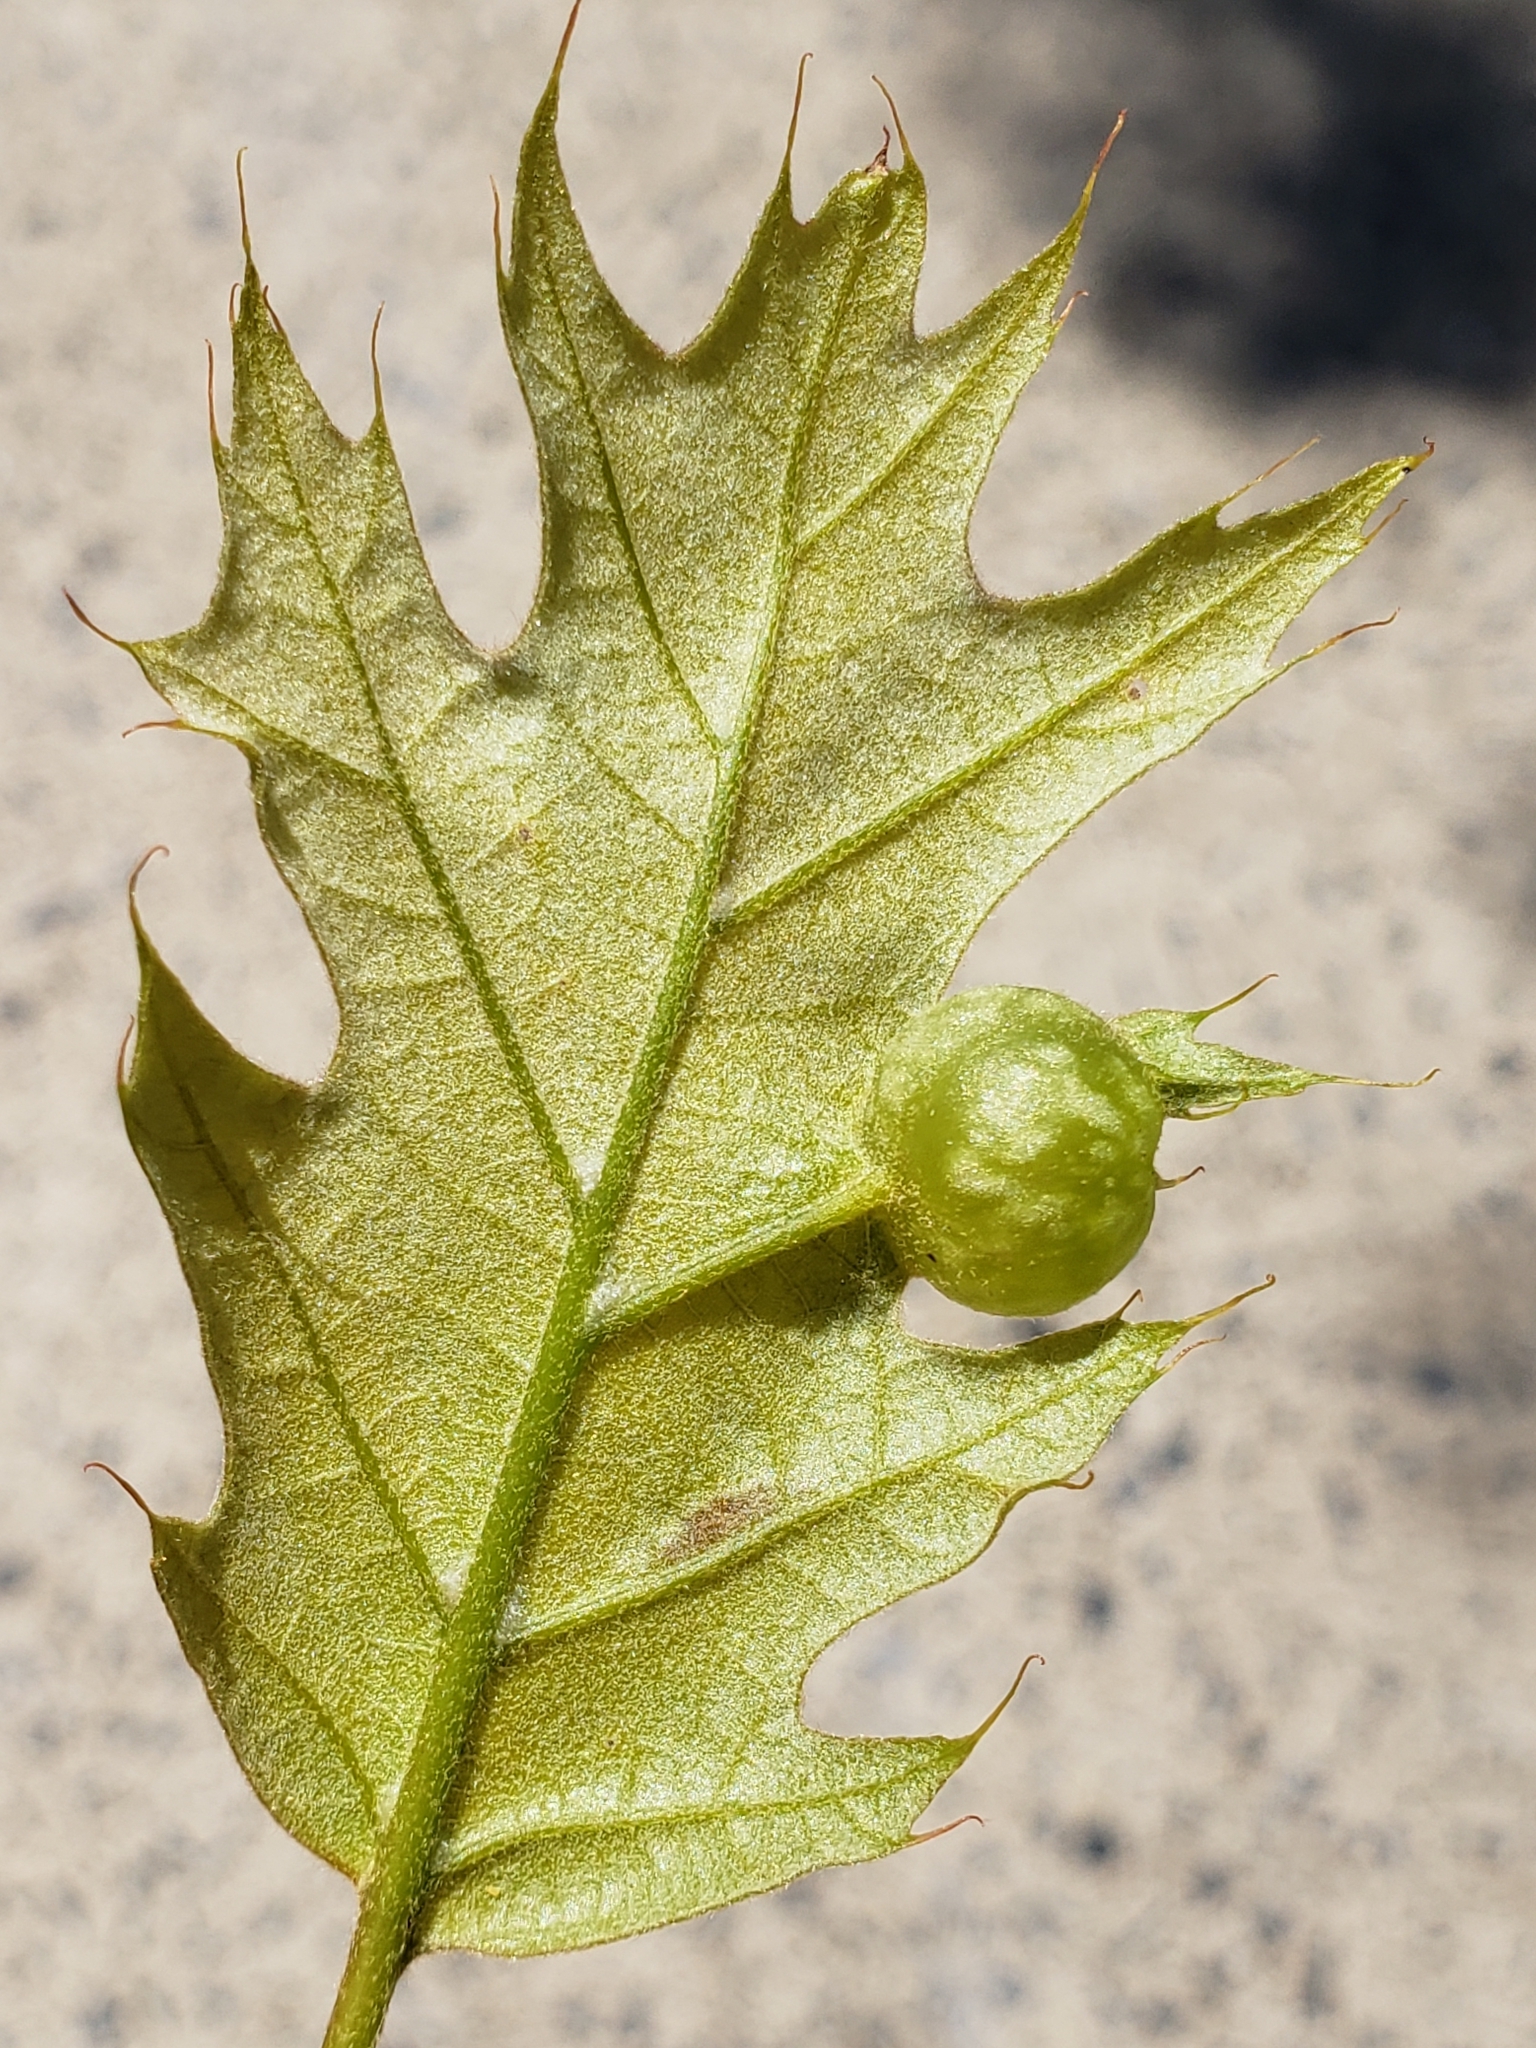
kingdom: Animalia
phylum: Arthropoda
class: Insecta
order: Hymenoptera
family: Cynipidae
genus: Dryocosmus
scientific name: Dryocosmus quercuspalustris
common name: Succulent oak gall wasp
